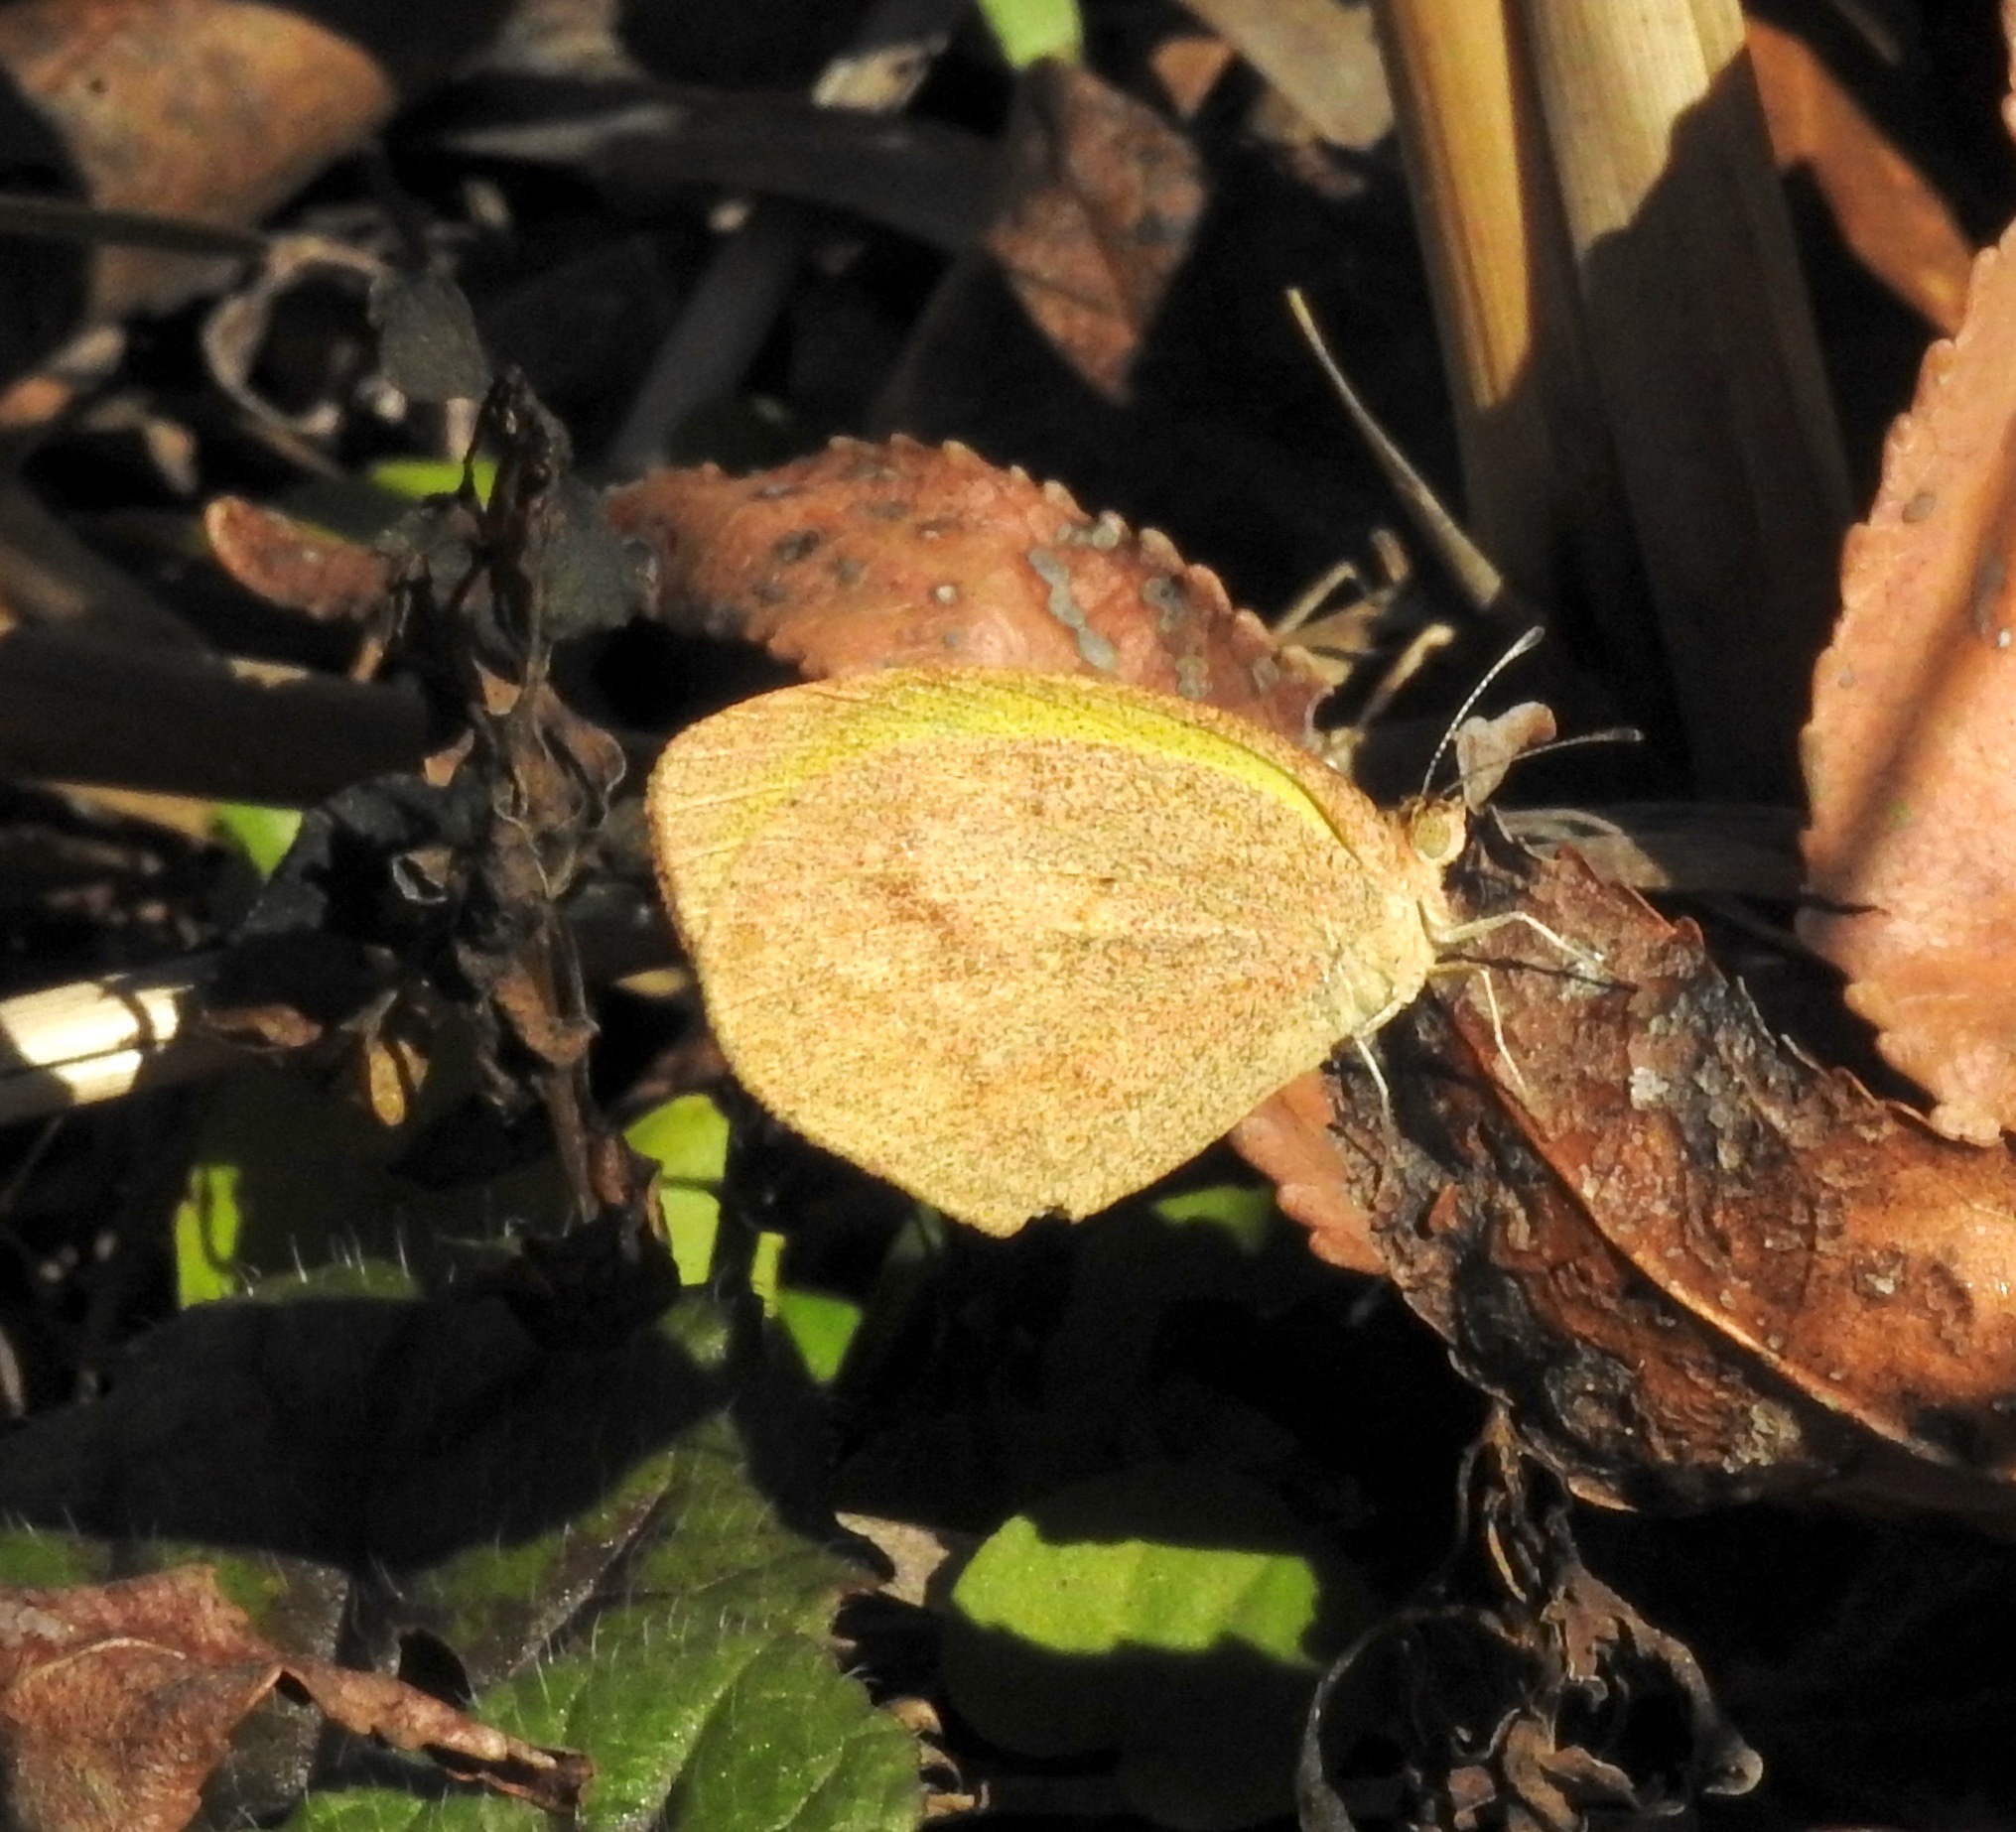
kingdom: Animalia
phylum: Arthropoda
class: Insecta
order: Lepidoptera
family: Pieridae
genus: Eurema
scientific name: Eurema daira
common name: Barred sulphur
